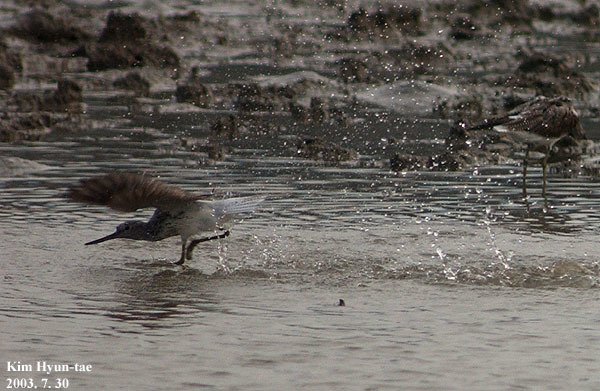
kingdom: Animalia
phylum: Chordata
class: Aves
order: Charadriiformes
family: Scolopacidae
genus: Tringa
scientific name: Tringa nebularia
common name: Common greenshank
